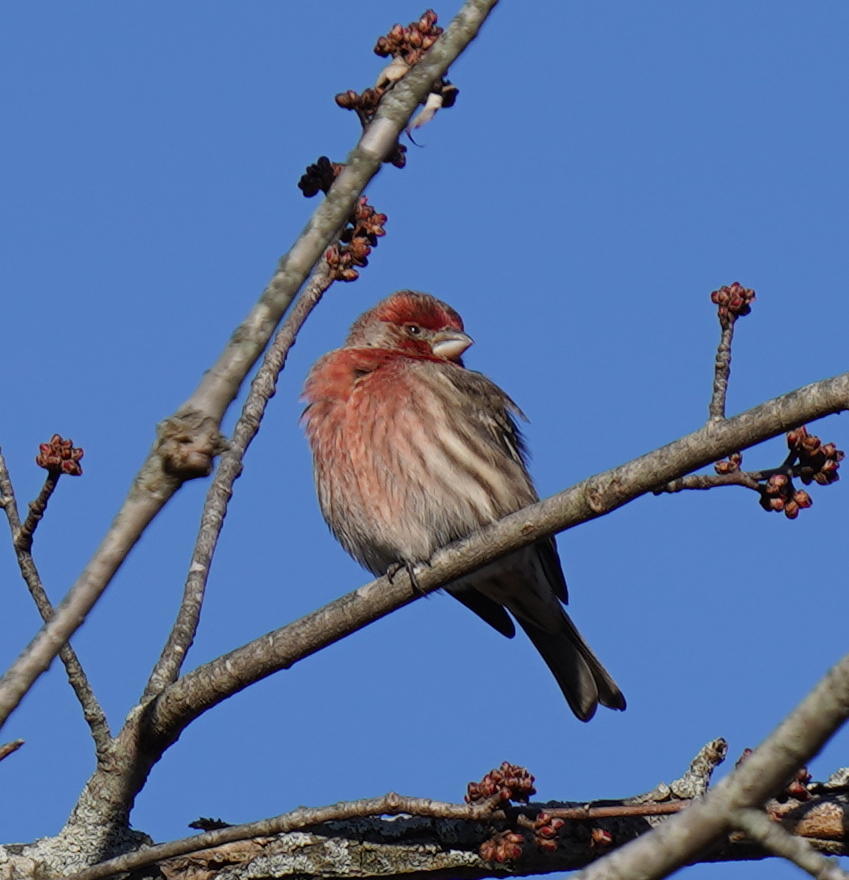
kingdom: Animalia
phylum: Chordata
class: Aves
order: Passeriformes
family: Fringillidae
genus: Haemorhous
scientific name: Haemorhous mexicanus
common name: House finch
